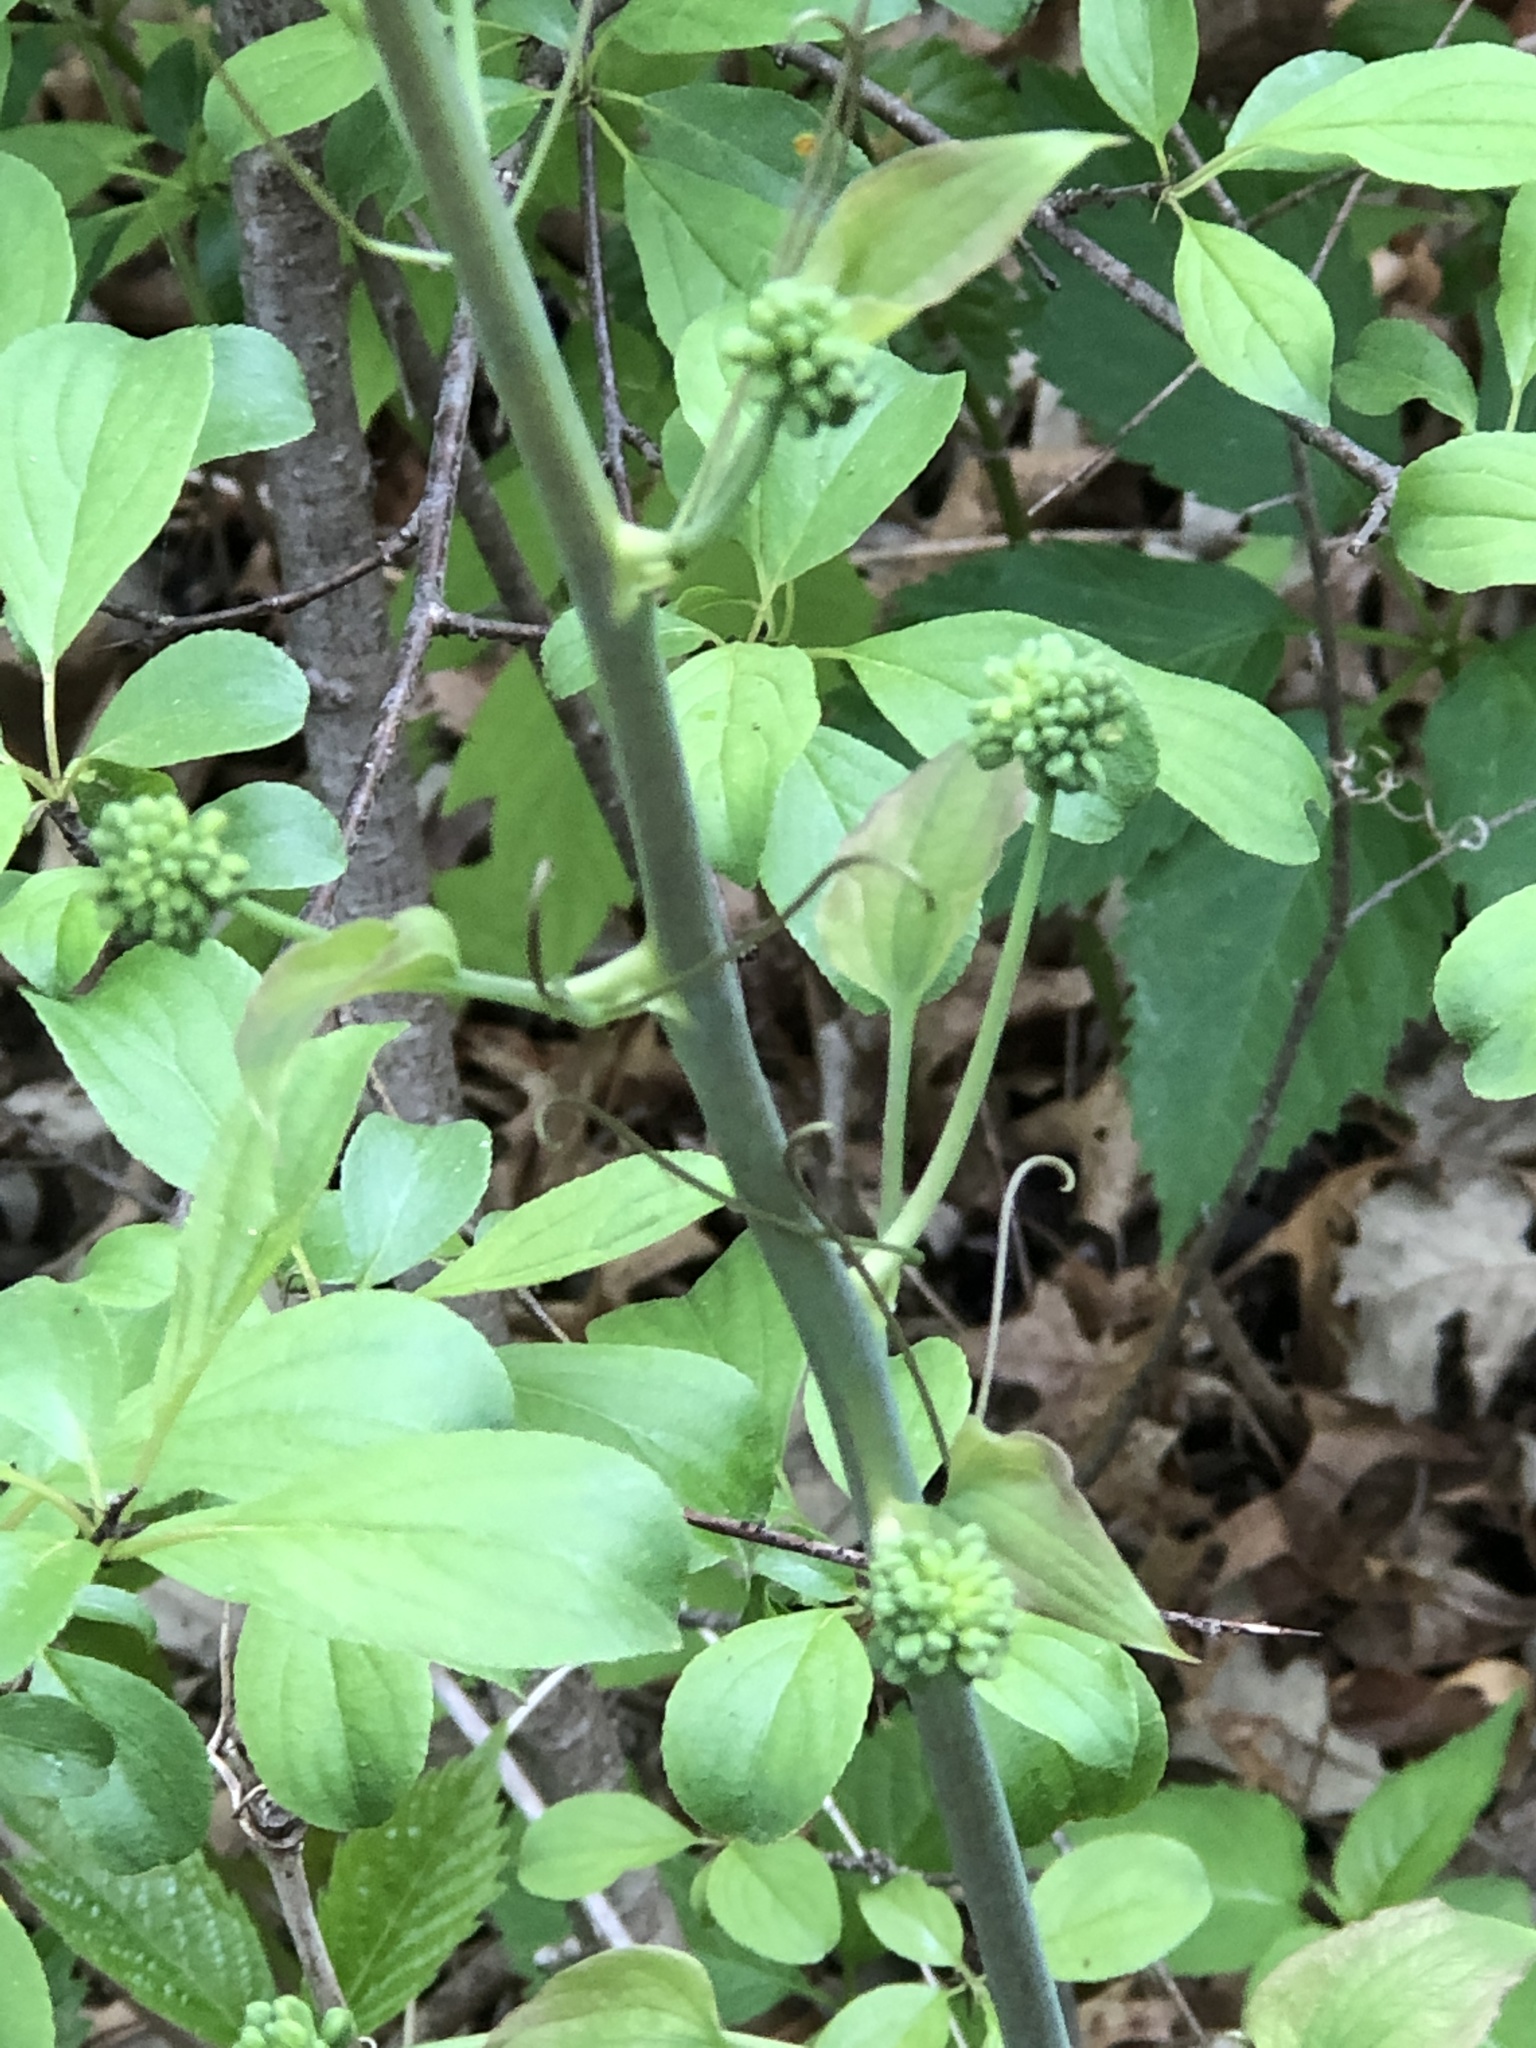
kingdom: Plantae
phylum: Tracheophyta
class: Liliopsida
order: Liliales
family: Smilacaceae
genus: Smilax
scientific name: Smilax lasioneura
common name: Blue ridge carrionflower
